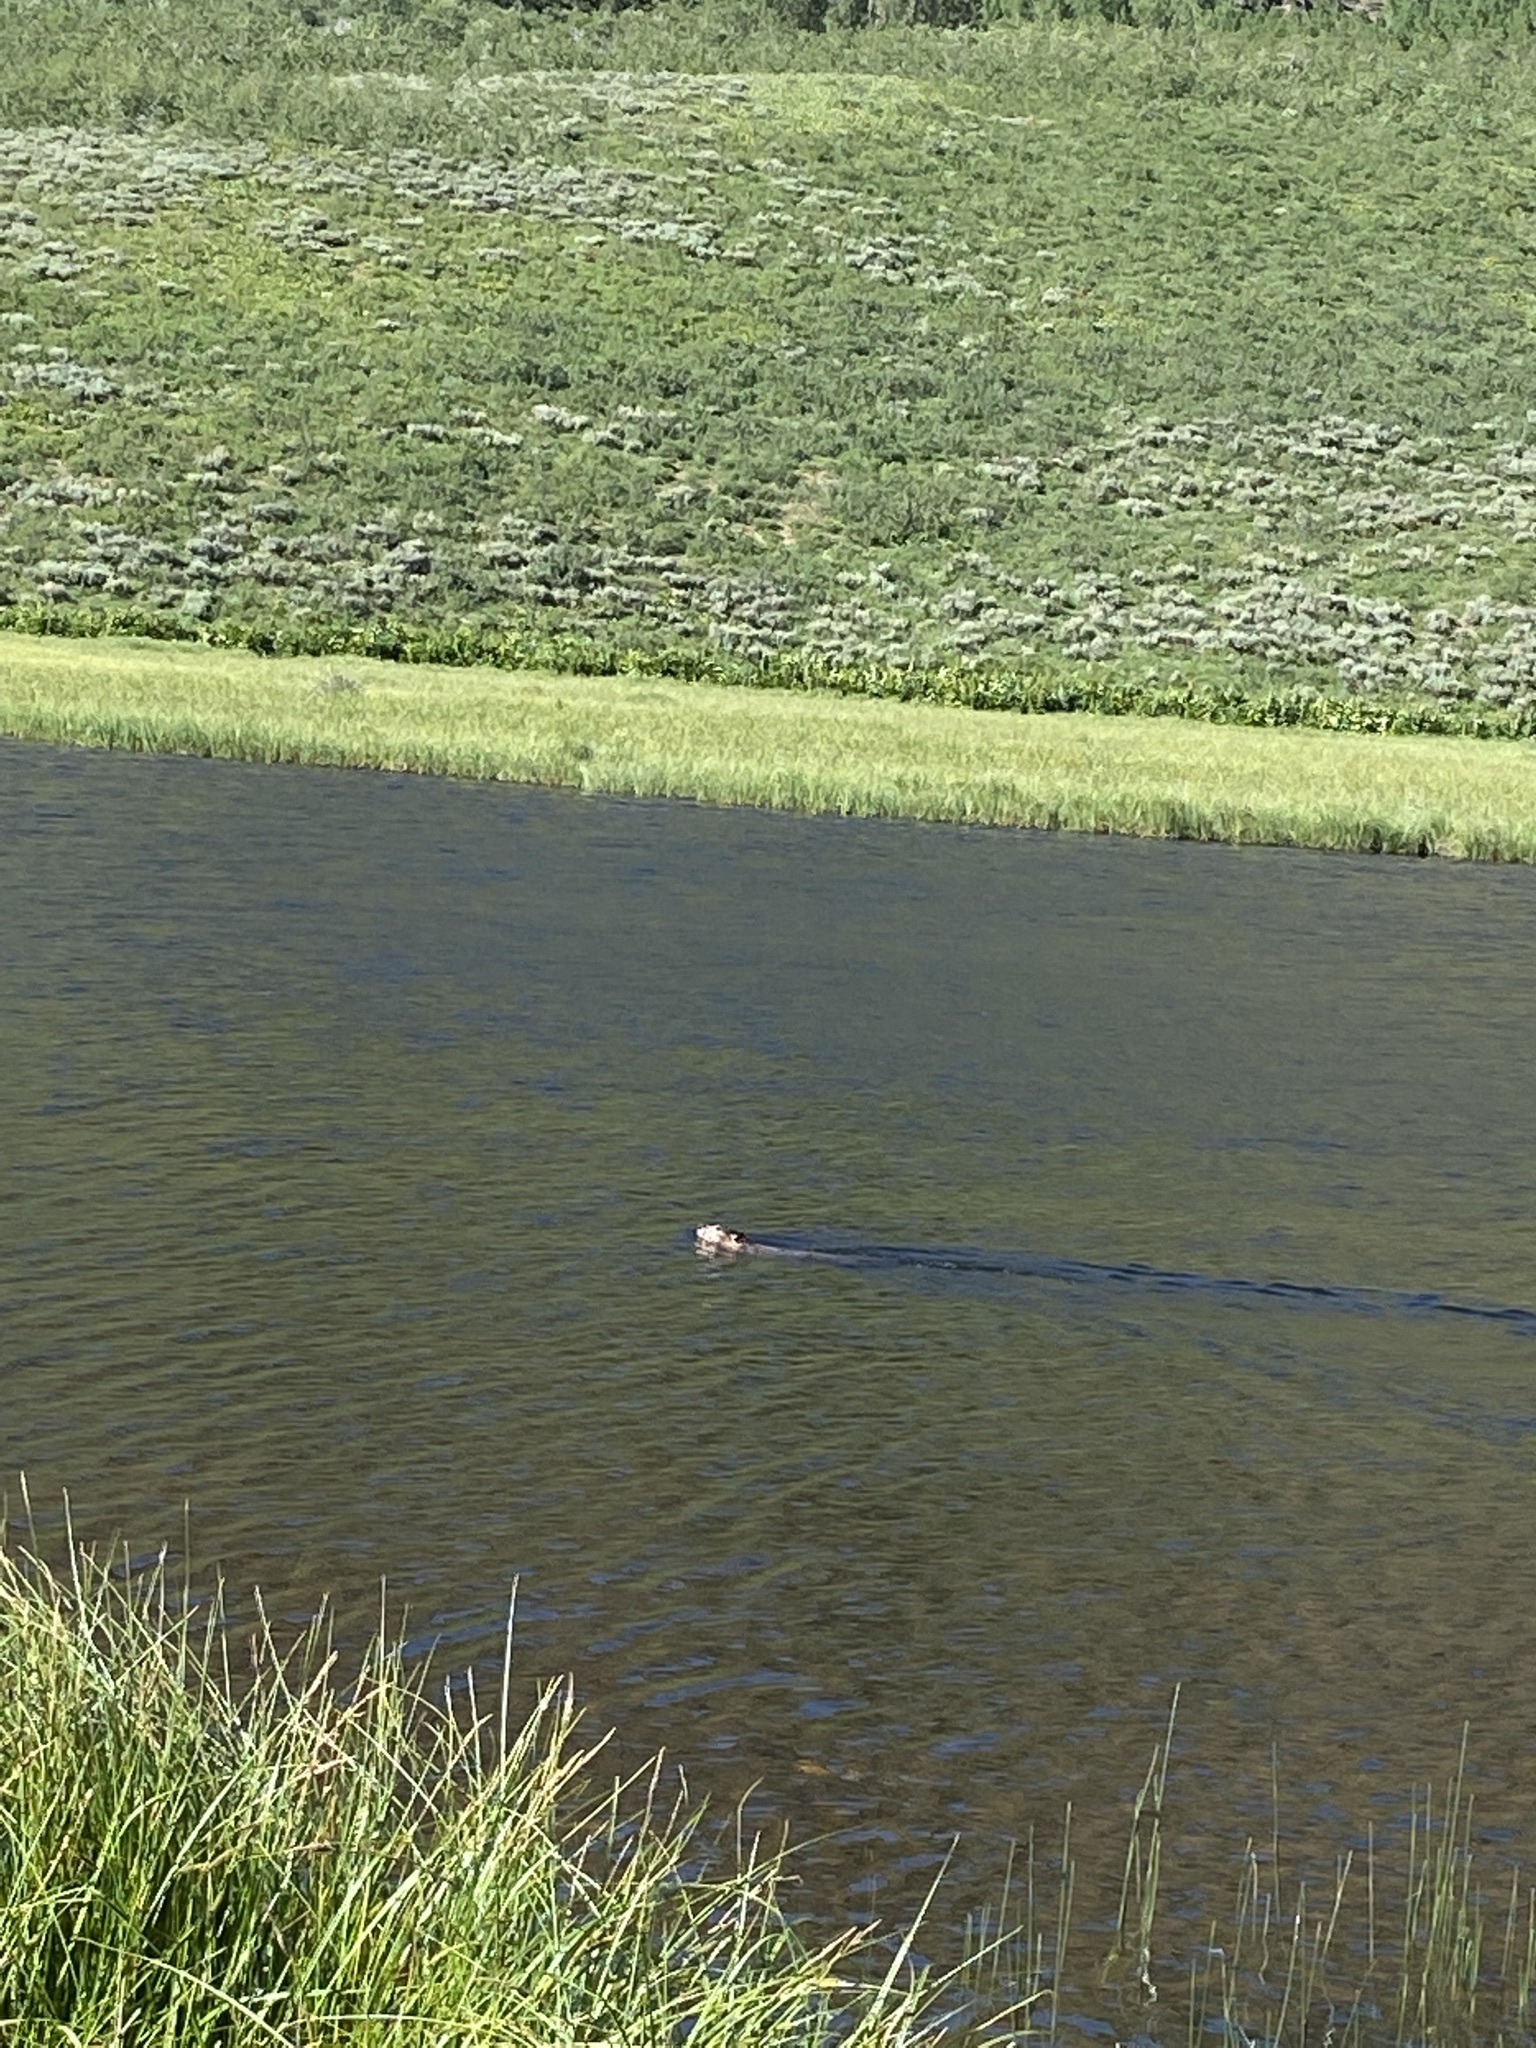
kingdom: Animalia
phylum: Chordata
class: Mammalia
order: Rodentia
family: Castoridae
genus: Castor
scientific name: Castor canadensis
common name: American beaver
